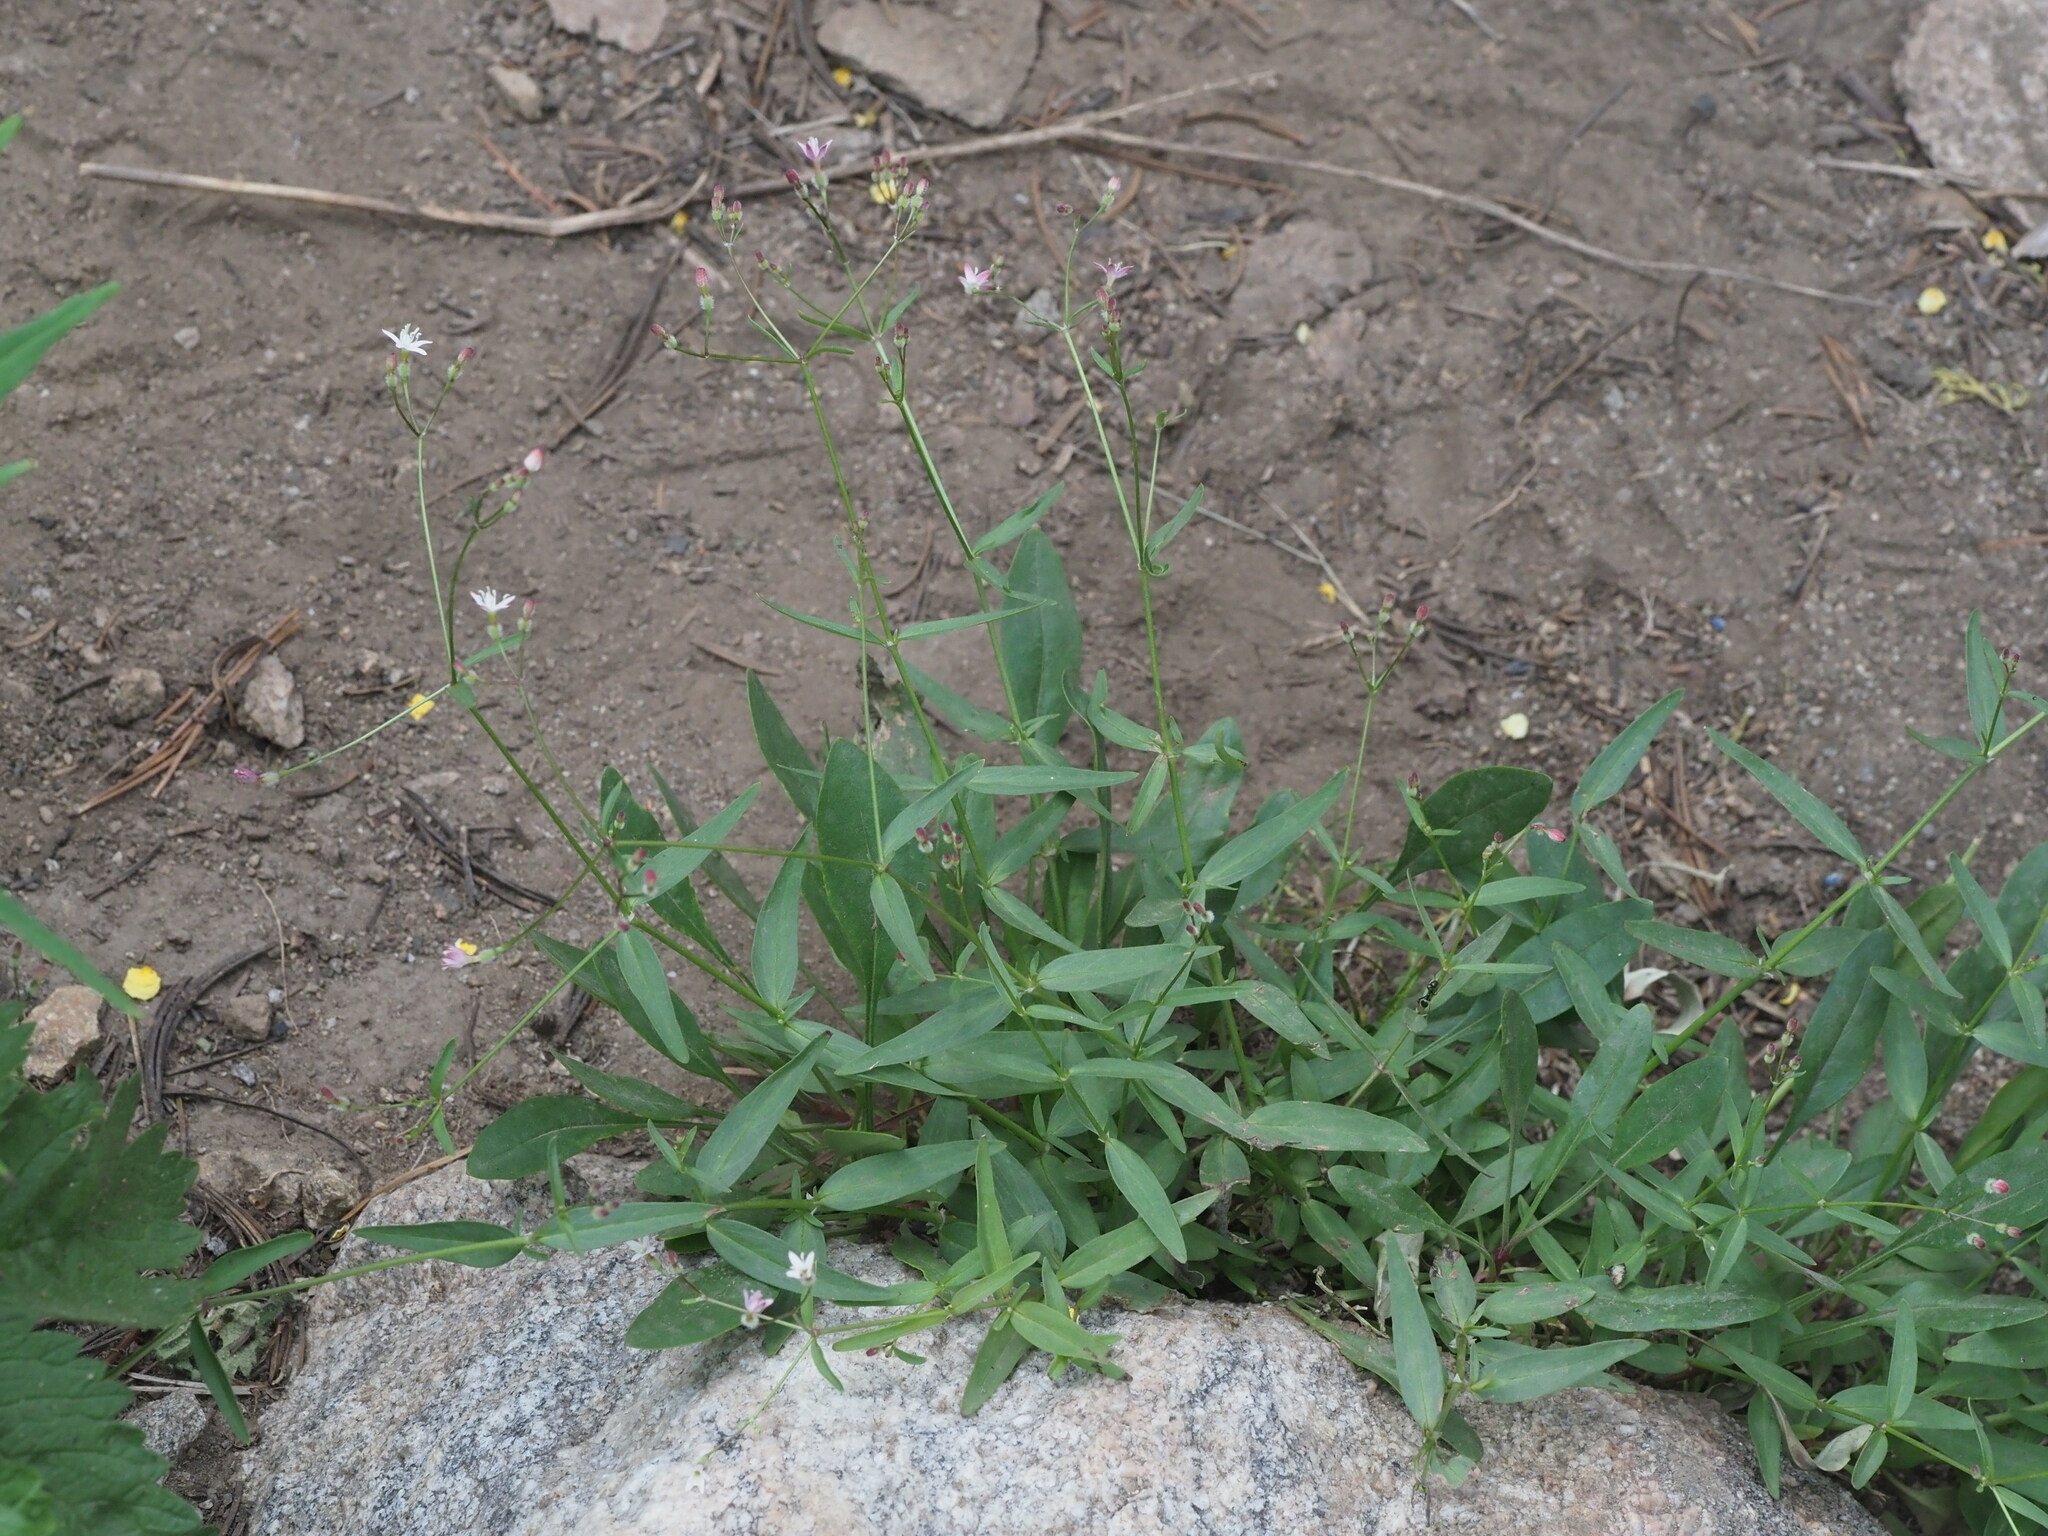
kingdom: Plantae
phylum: Tracheophyta
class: Magnoliopsida
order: Gentianales
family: Rubiaceae
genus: Kelloggia
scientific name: Kelloggia galioides
